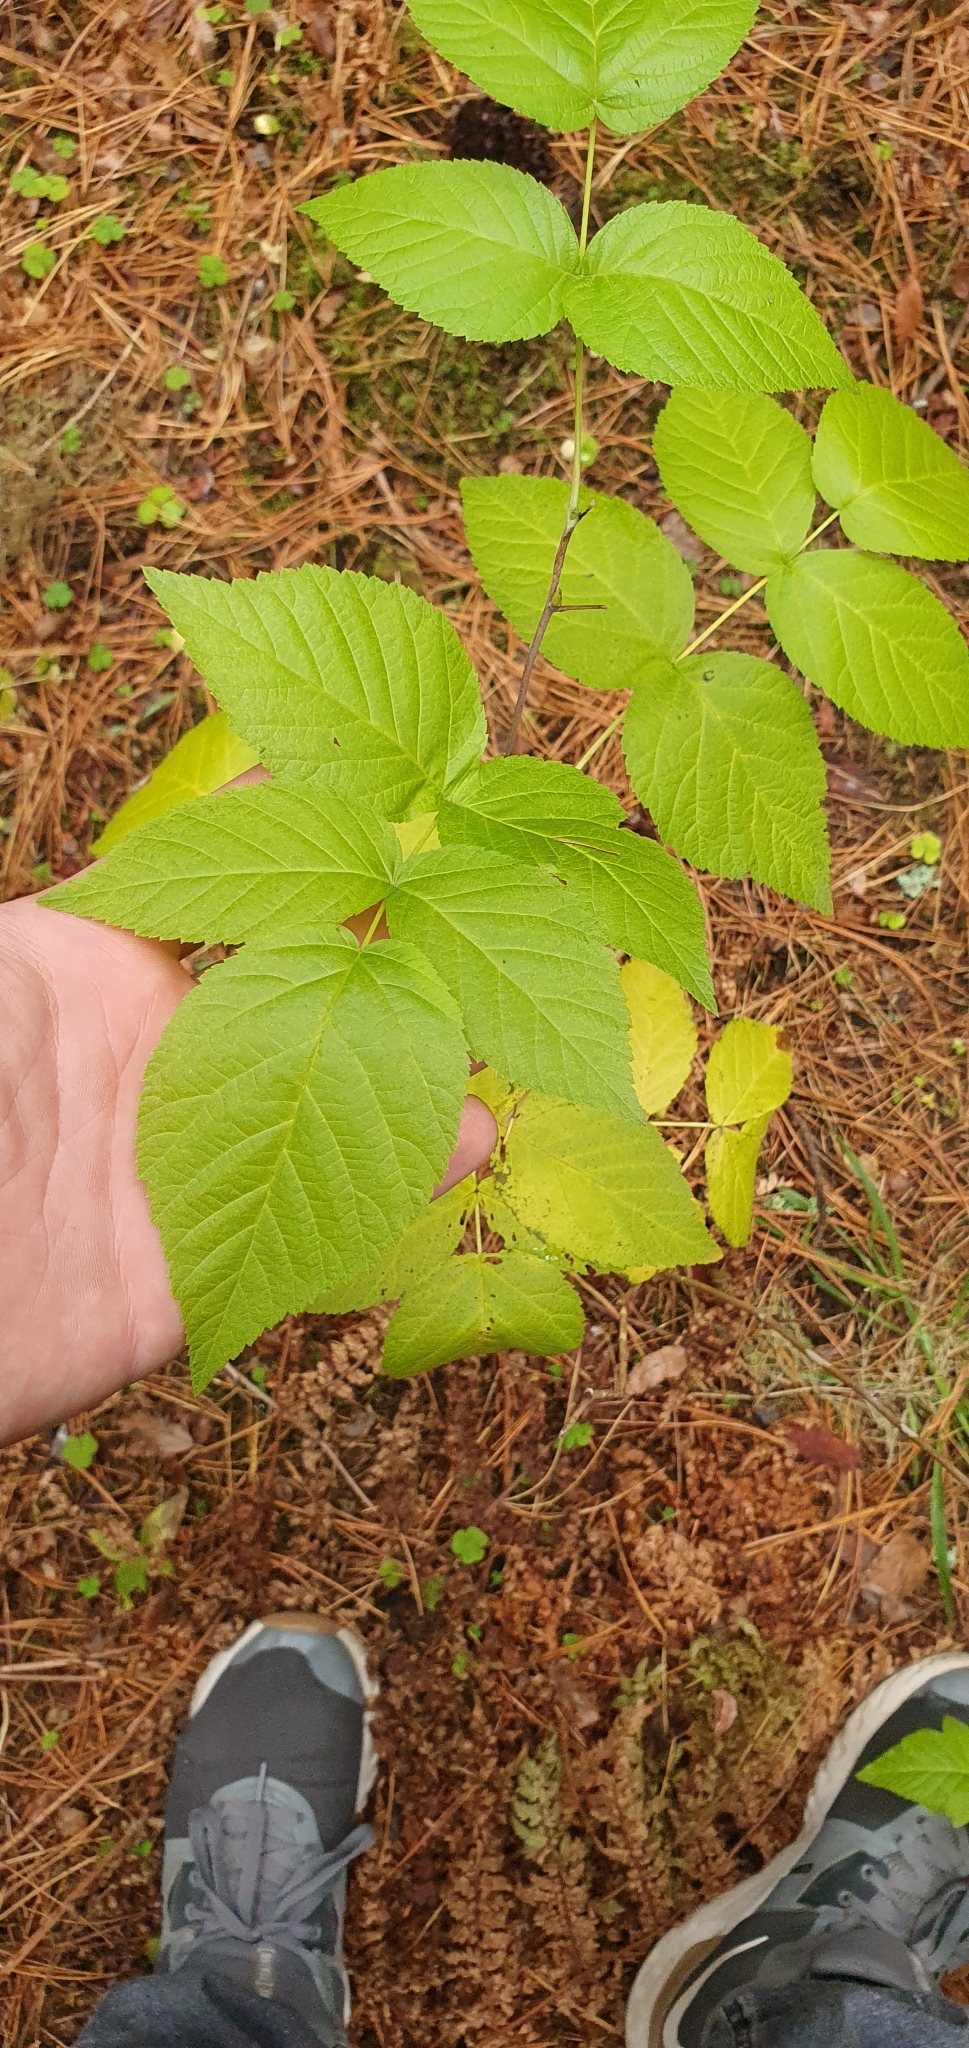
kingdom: Plantae
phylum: Tracheophyta
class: Magnoliopsida
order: Rosales
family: Rosaceae
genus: Rubus
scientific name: Rubus idaeus
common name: Raspberry
